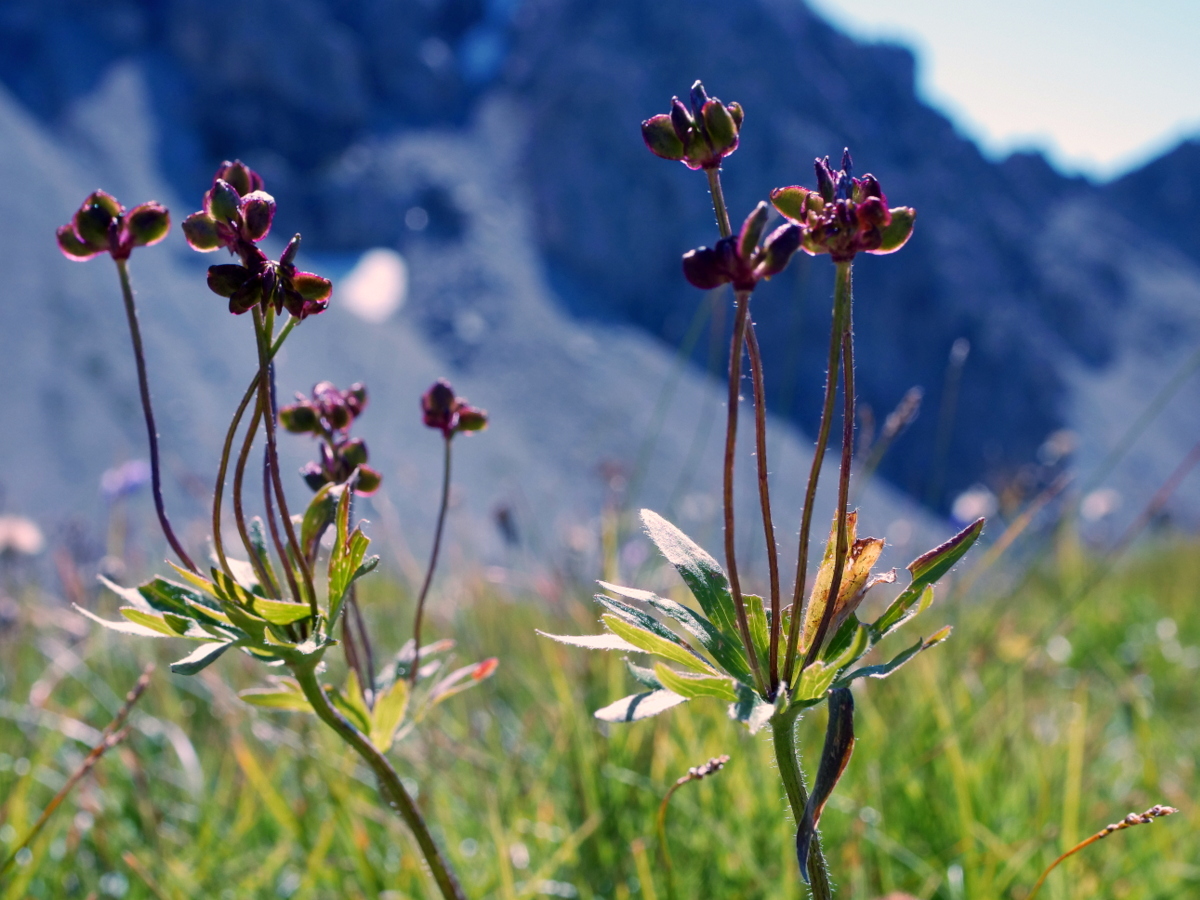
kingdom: Plantae
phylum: Tracheophyta
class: Magnoliopsida
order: Ranunculales
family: Ranunculaceae
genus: Anemonastrum
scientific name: Anemonastrum narcissiflorum
